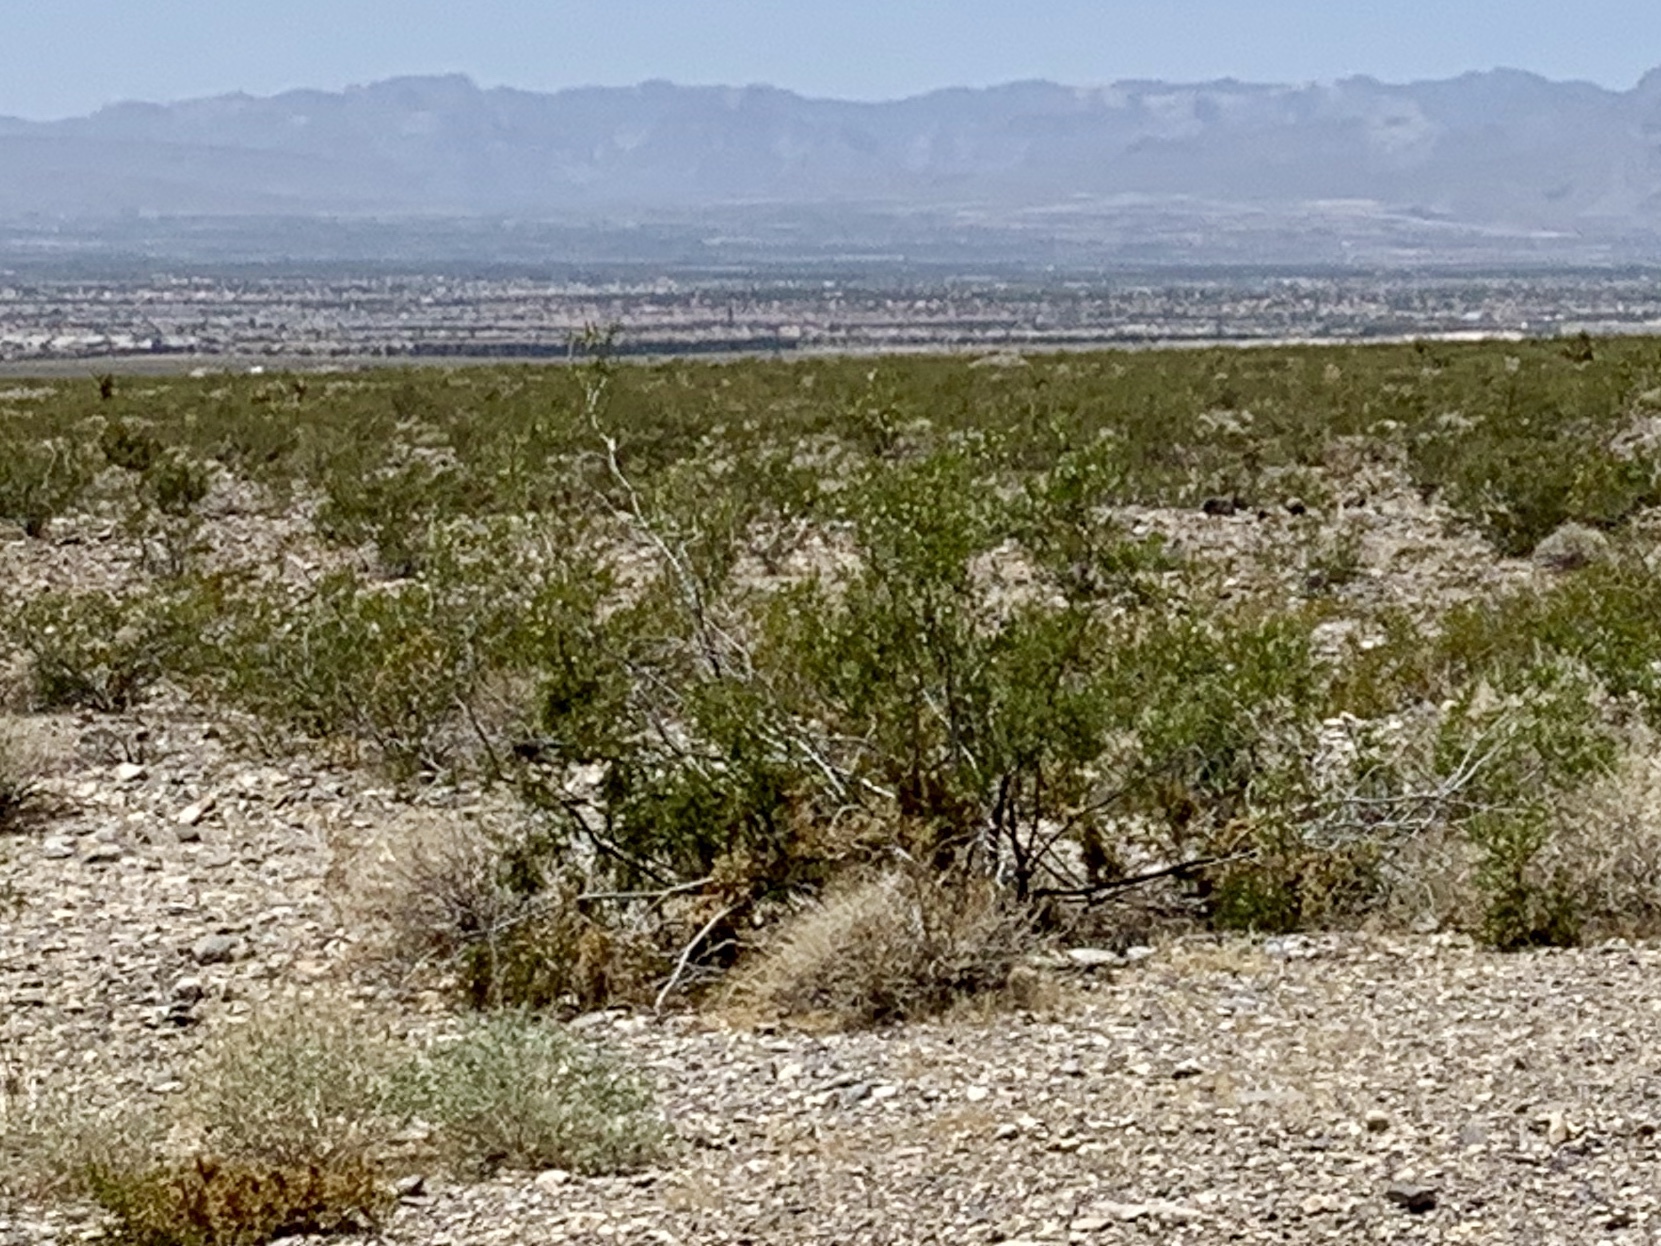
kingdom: Plantae
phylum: Tracheophyta
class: Magnoliopsida
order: Zygophyllales
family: Zygophyllaceae
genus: Larrea
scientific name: Larrea tridentata
